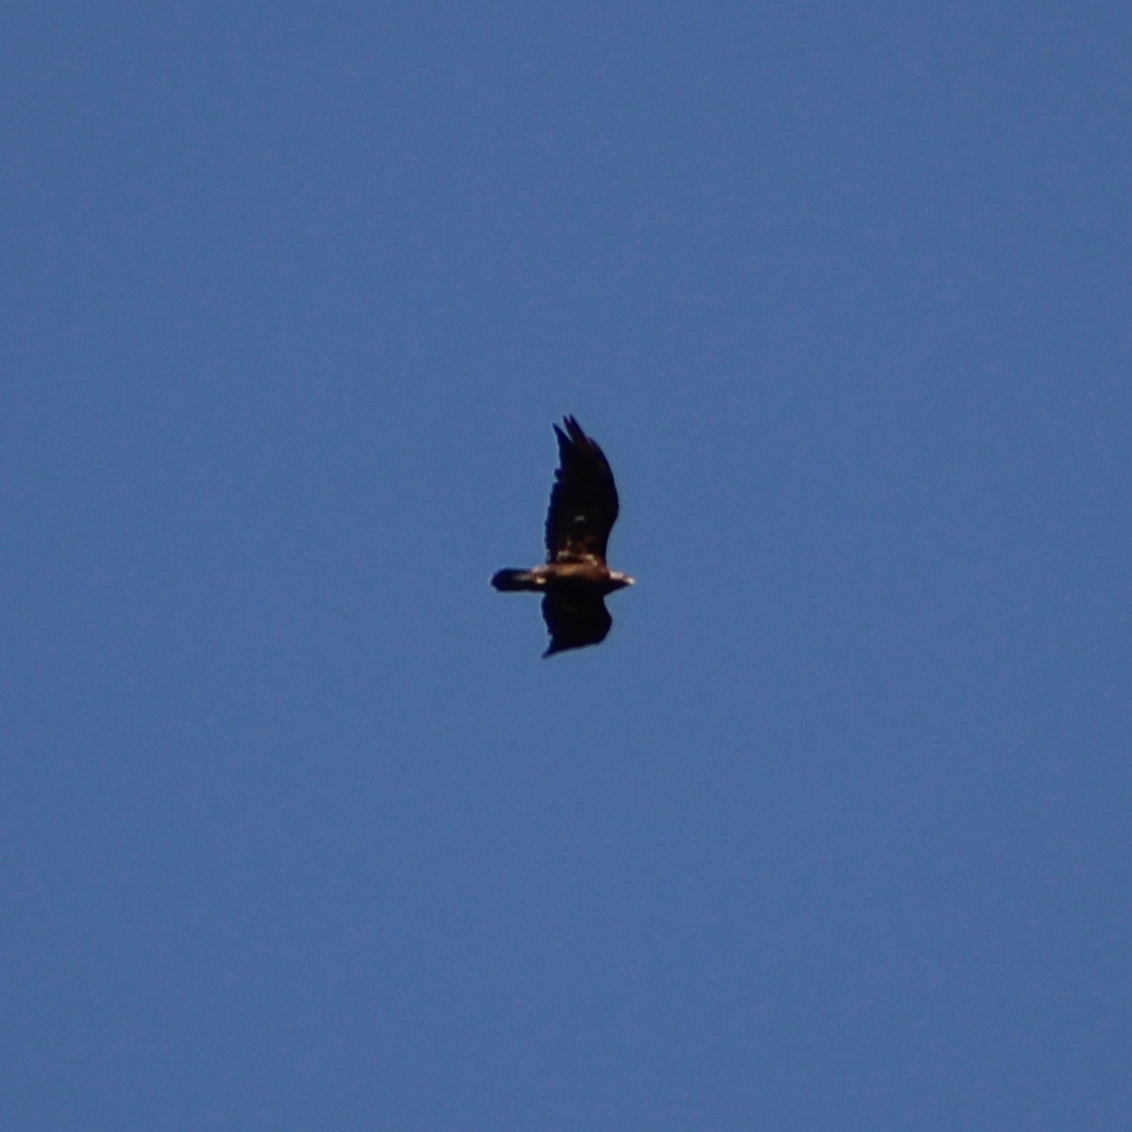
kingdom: Animalia
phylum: Chordata
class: Aves
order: Accipitriformes
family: Accipitridae
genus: Aquila
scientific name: Aquila chrysaetos
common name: Golden eagle
